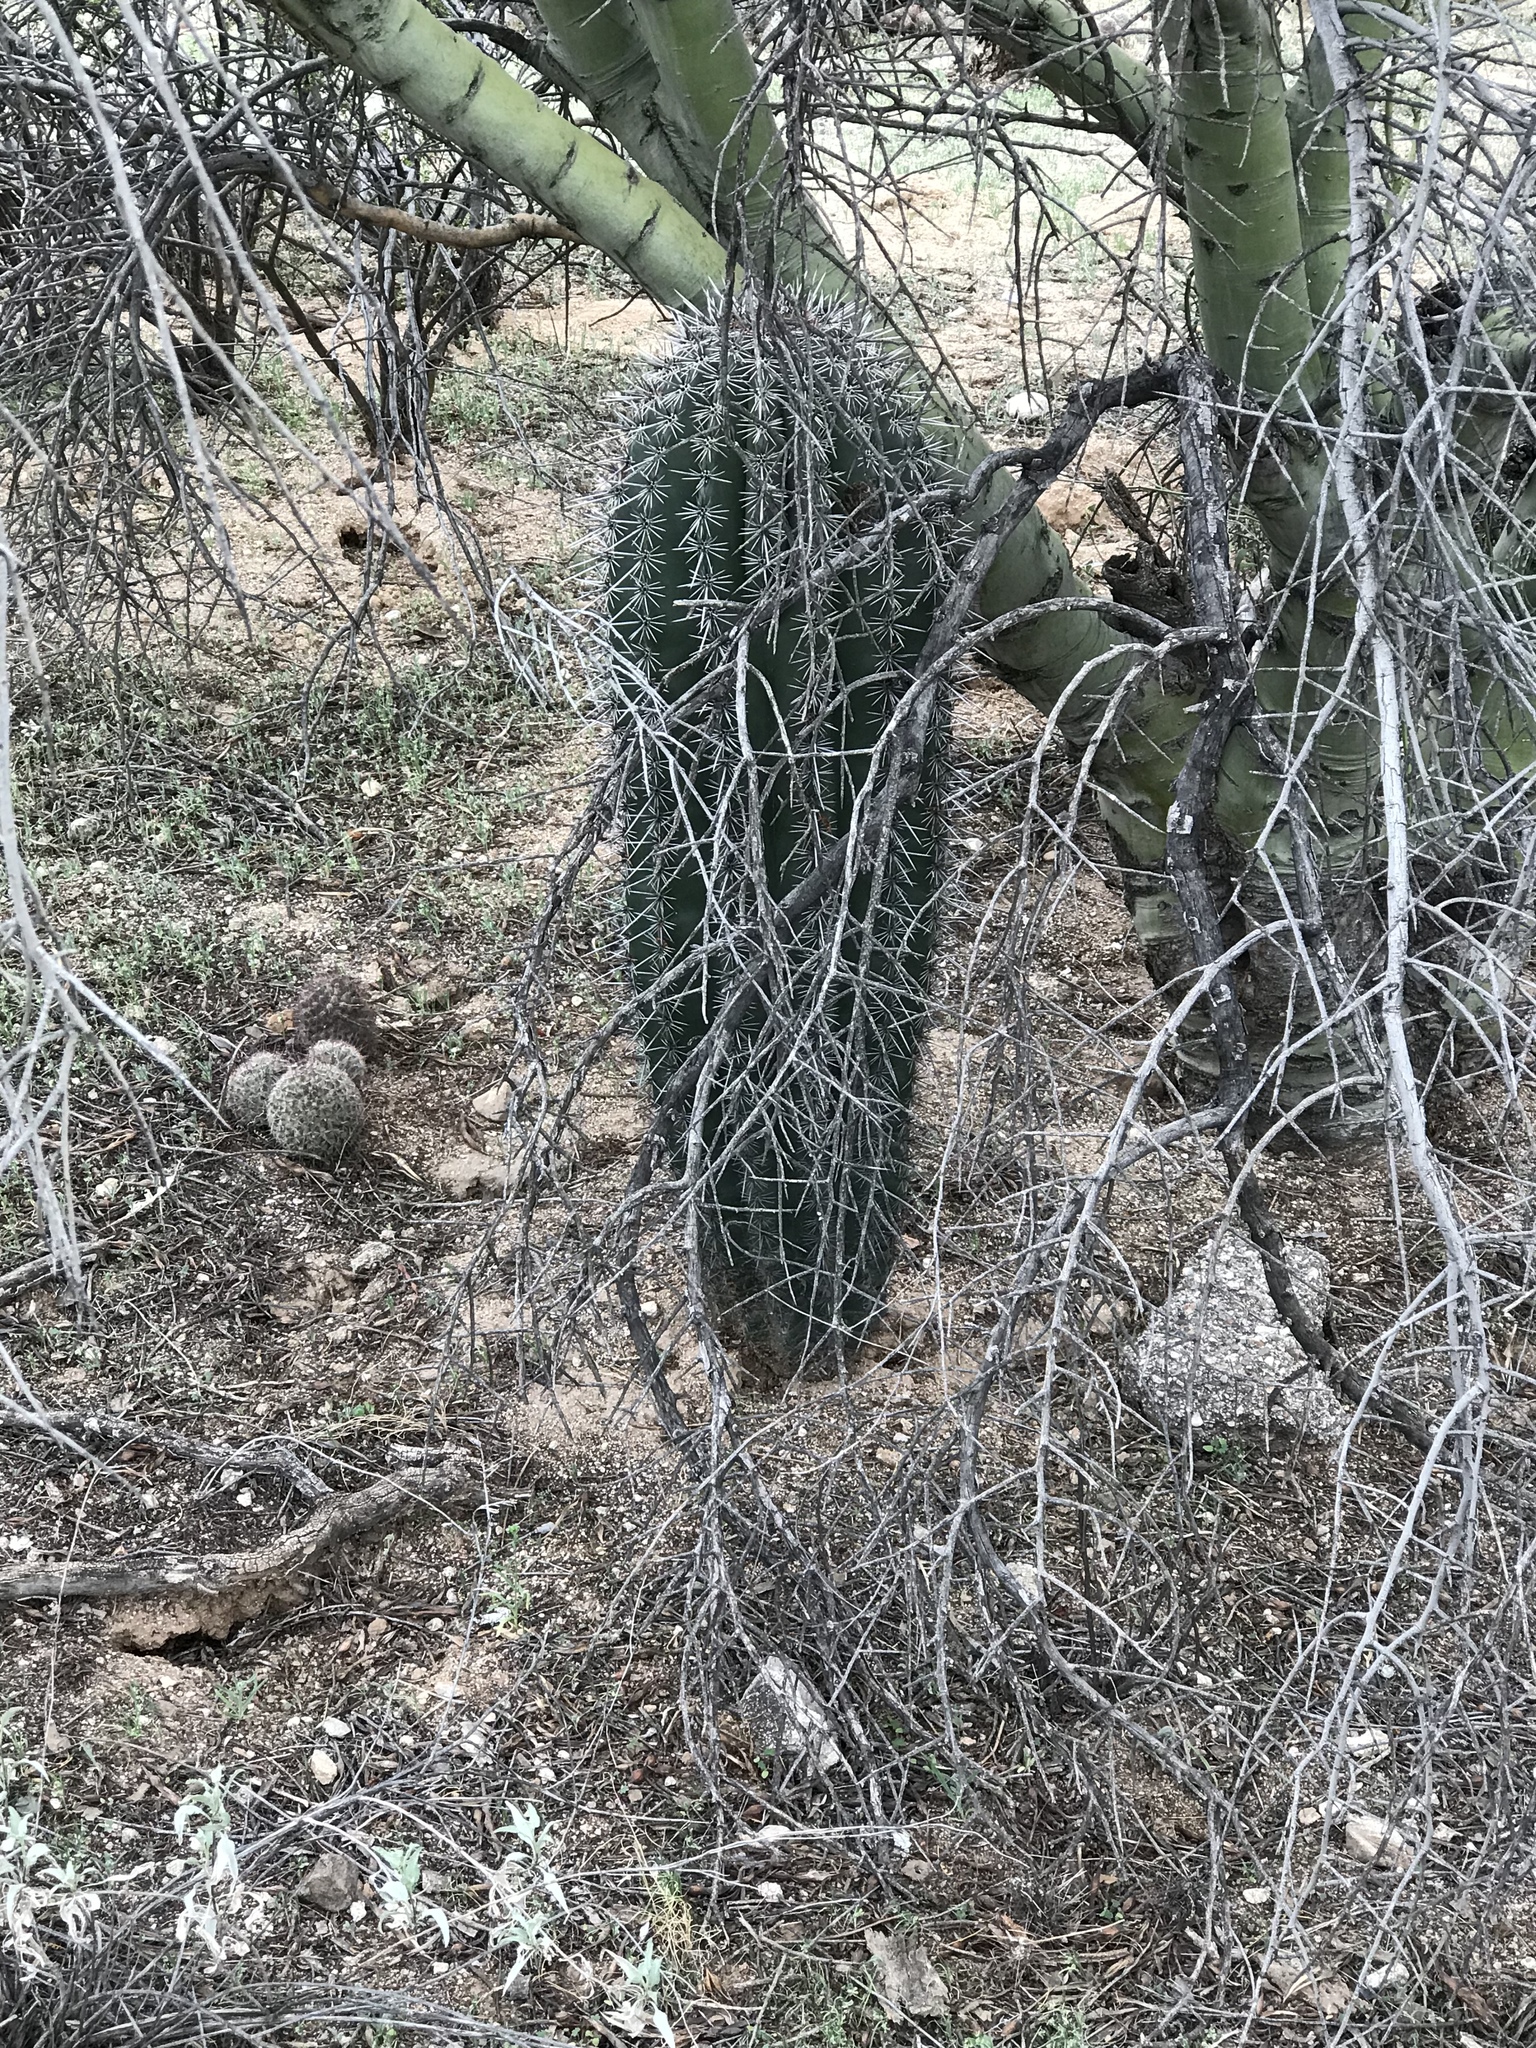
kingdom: Plantae
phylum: Tracheophyta
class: Magnoliopsida
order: Caryophyllales
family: Cactaceae
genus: Carnegiea
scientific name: Carnegiea gigantea
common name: Saguaro
